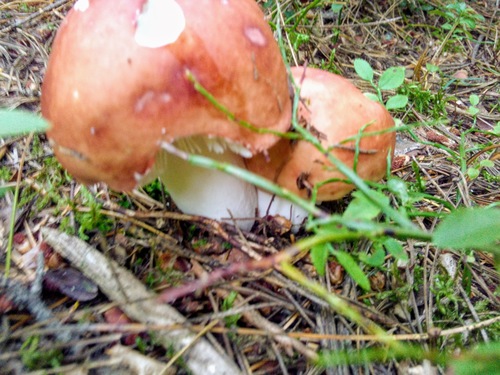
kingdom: Fungi
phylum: Basidiomycota
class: Agaricomycetes
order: Russulales
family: Russulaceae
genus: Russula
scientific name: Russula
